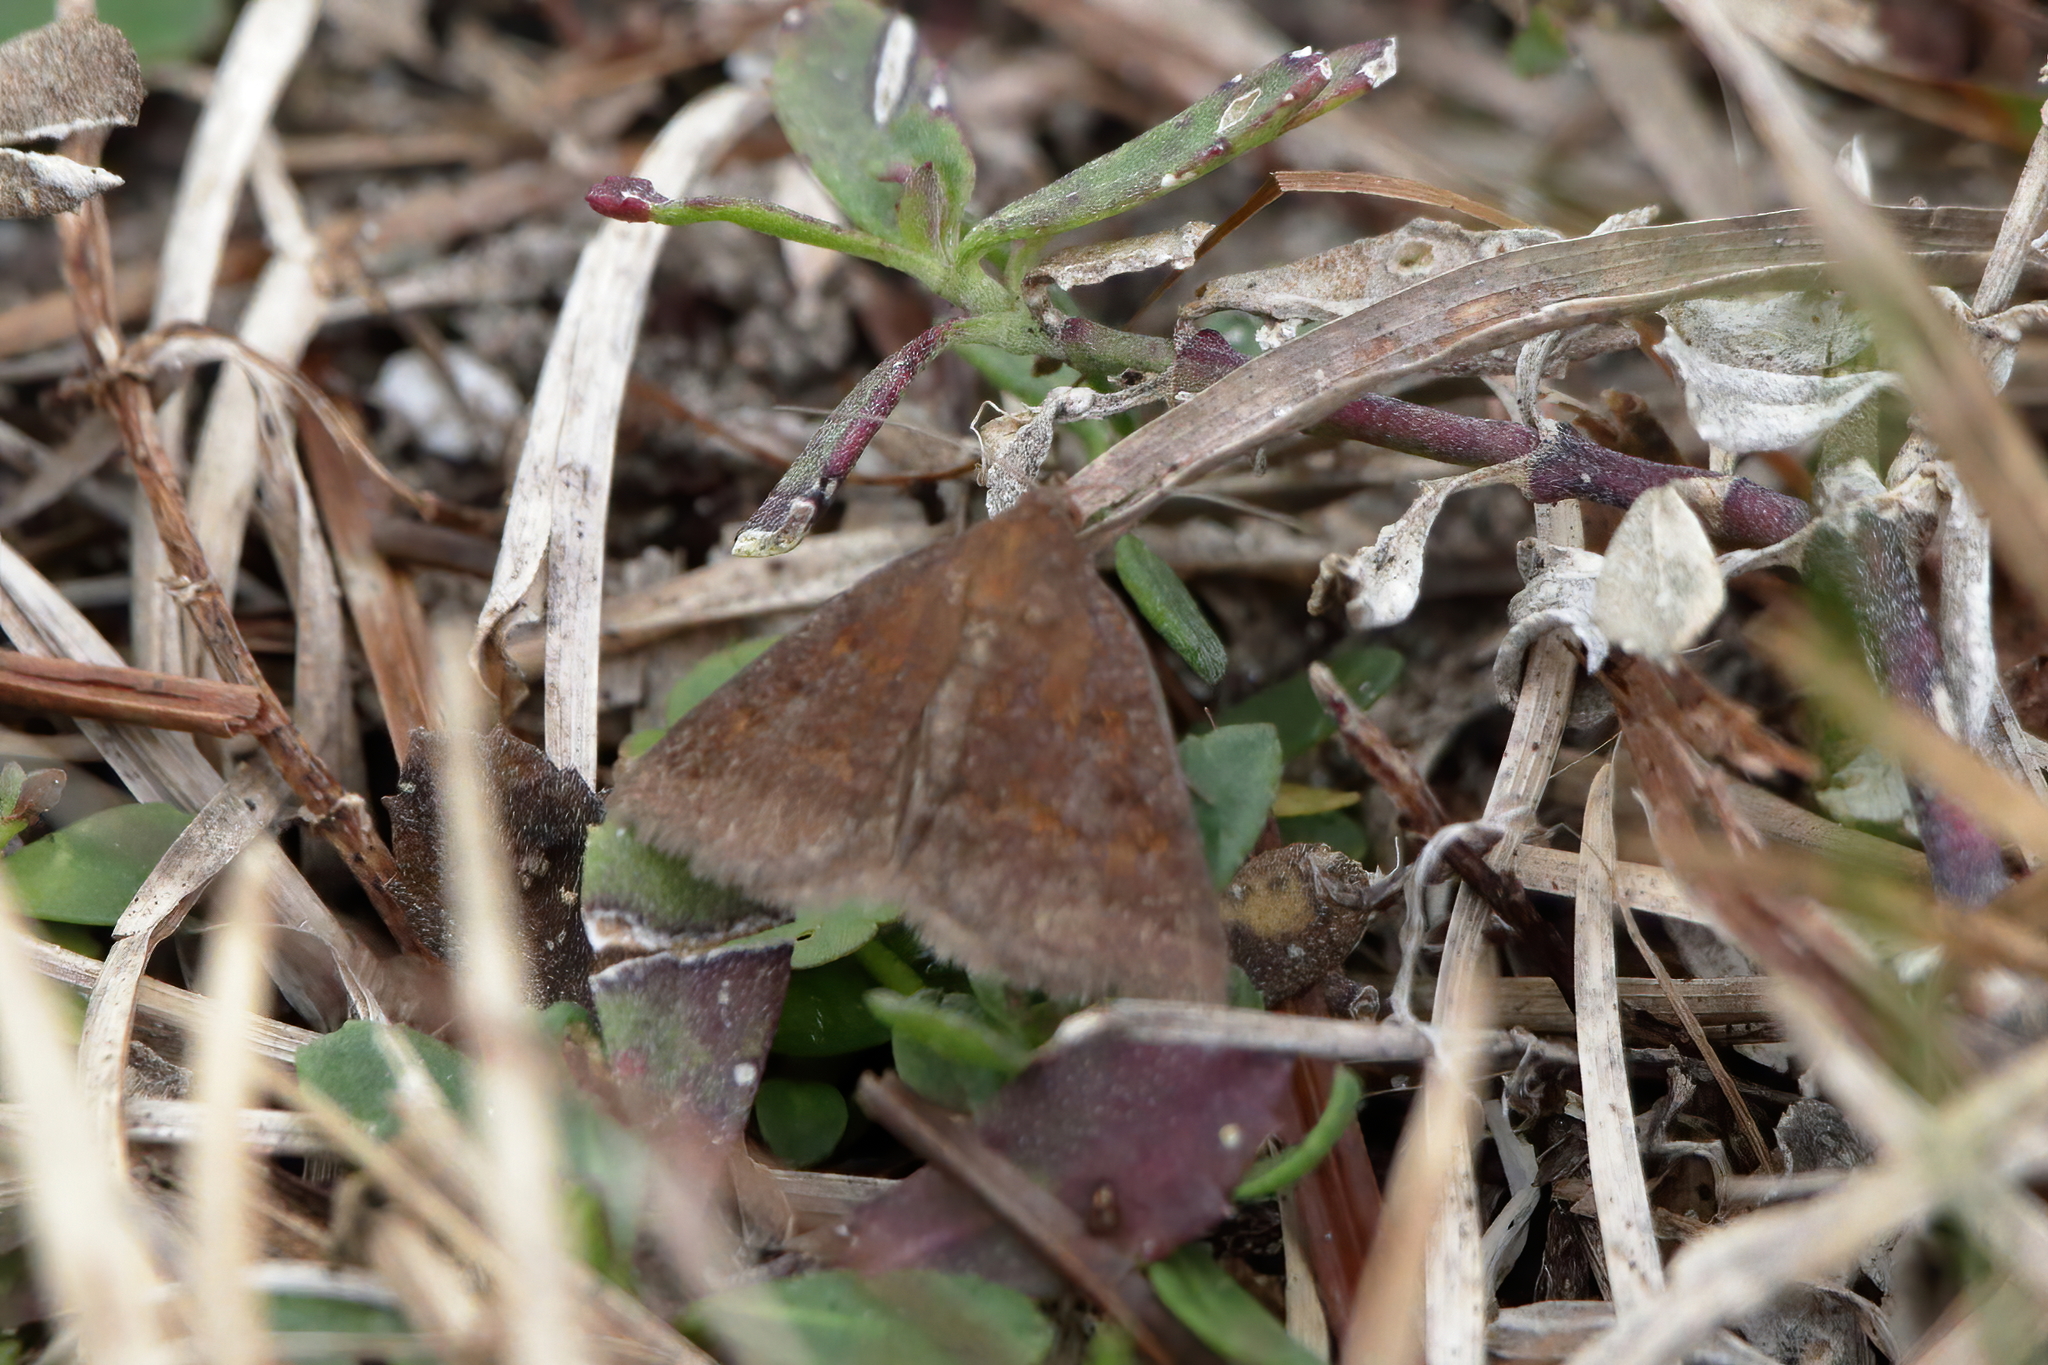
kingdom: Animalia
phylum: Arthropoda
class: Insecta
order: Lepidoptera
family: Erebidae
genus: Argyrostrotis
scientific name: Argyrostrotis deleta
